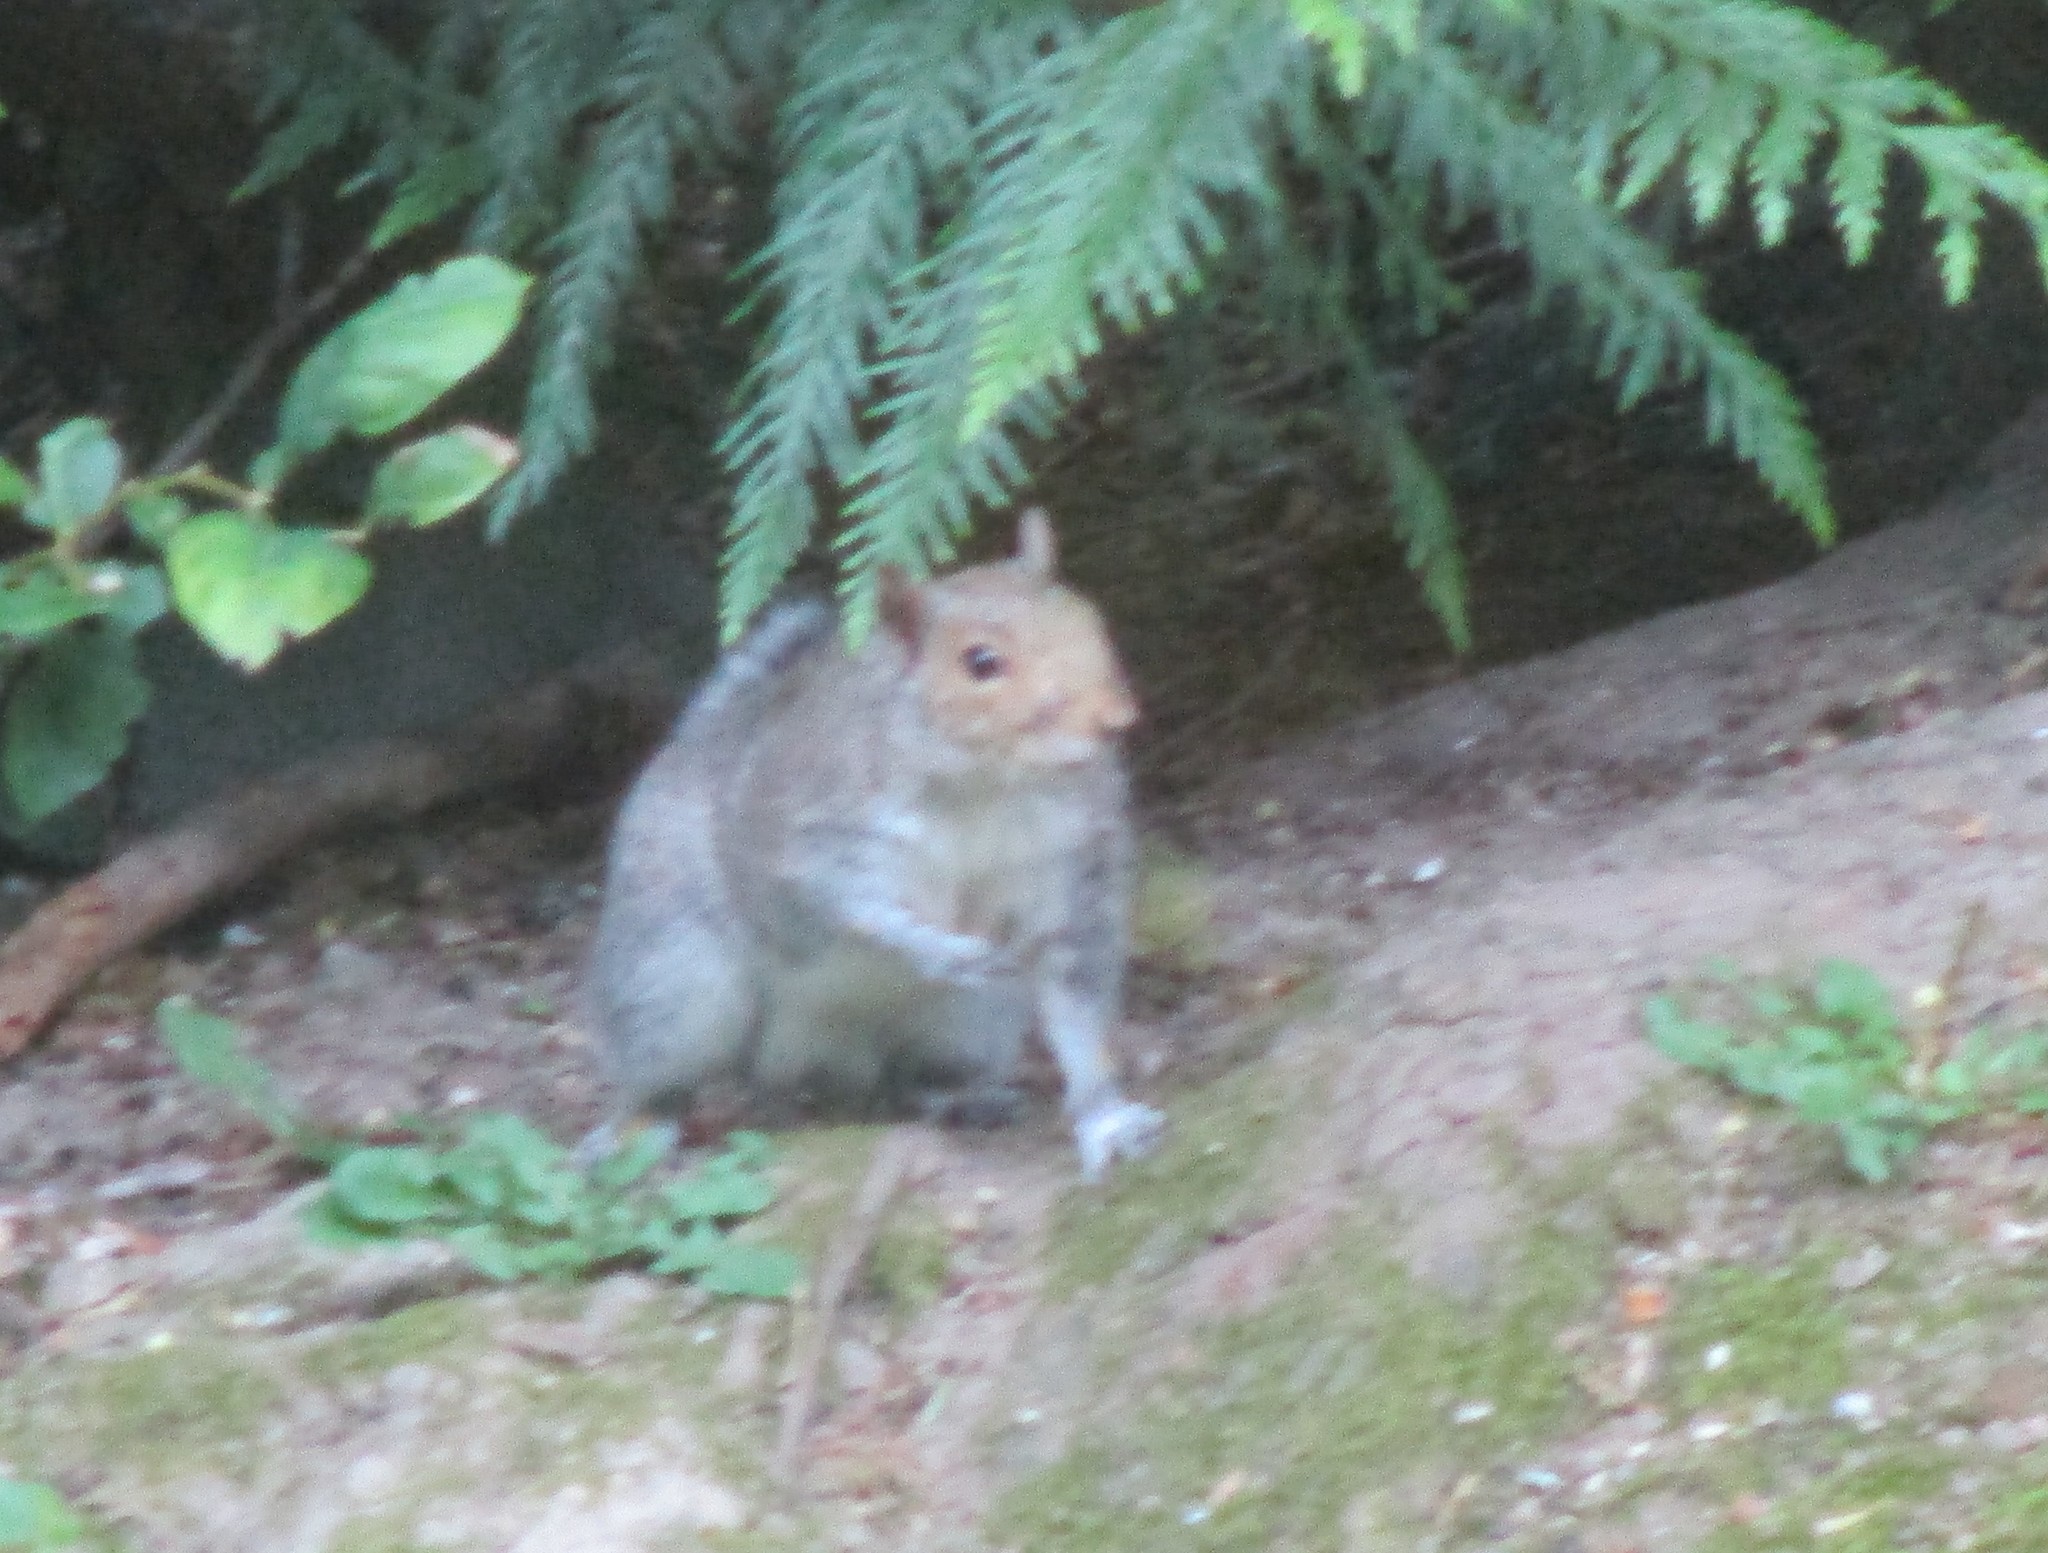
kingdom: Animalia
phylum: Chordata
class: Mammalia
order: Rodentia
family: Sciuridae
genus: Sciurus
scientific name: Sciurus carolinensis
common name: Eastern gray squirrel
